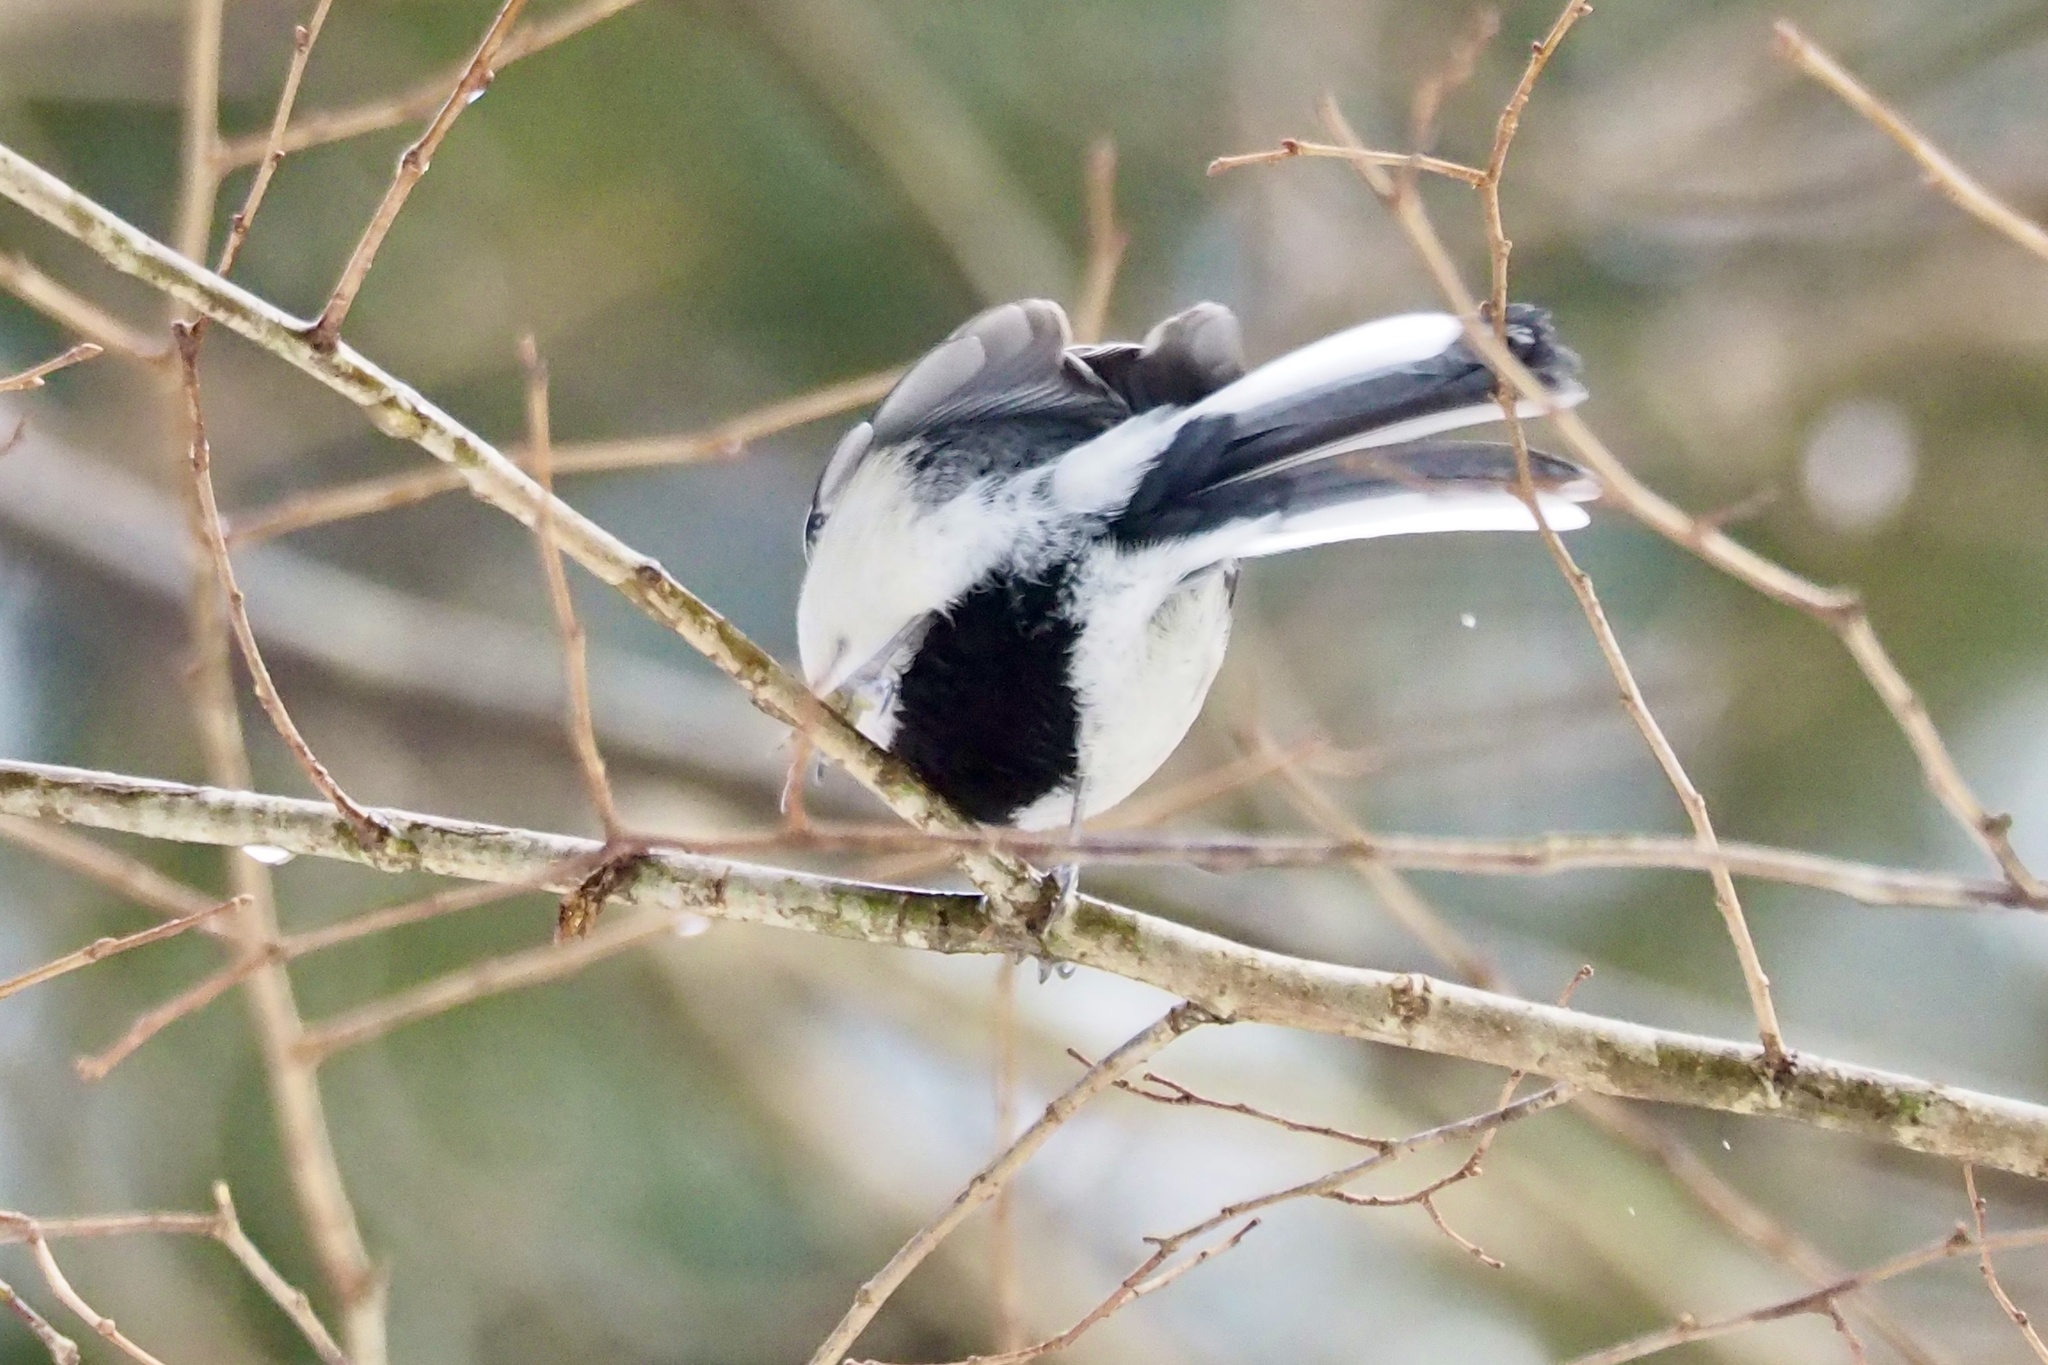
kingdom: Animalia
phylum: Chordata
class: Aves
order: Passeriformes
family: Paridae
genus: Parus
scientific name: Parus minor
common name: Japanese tit
